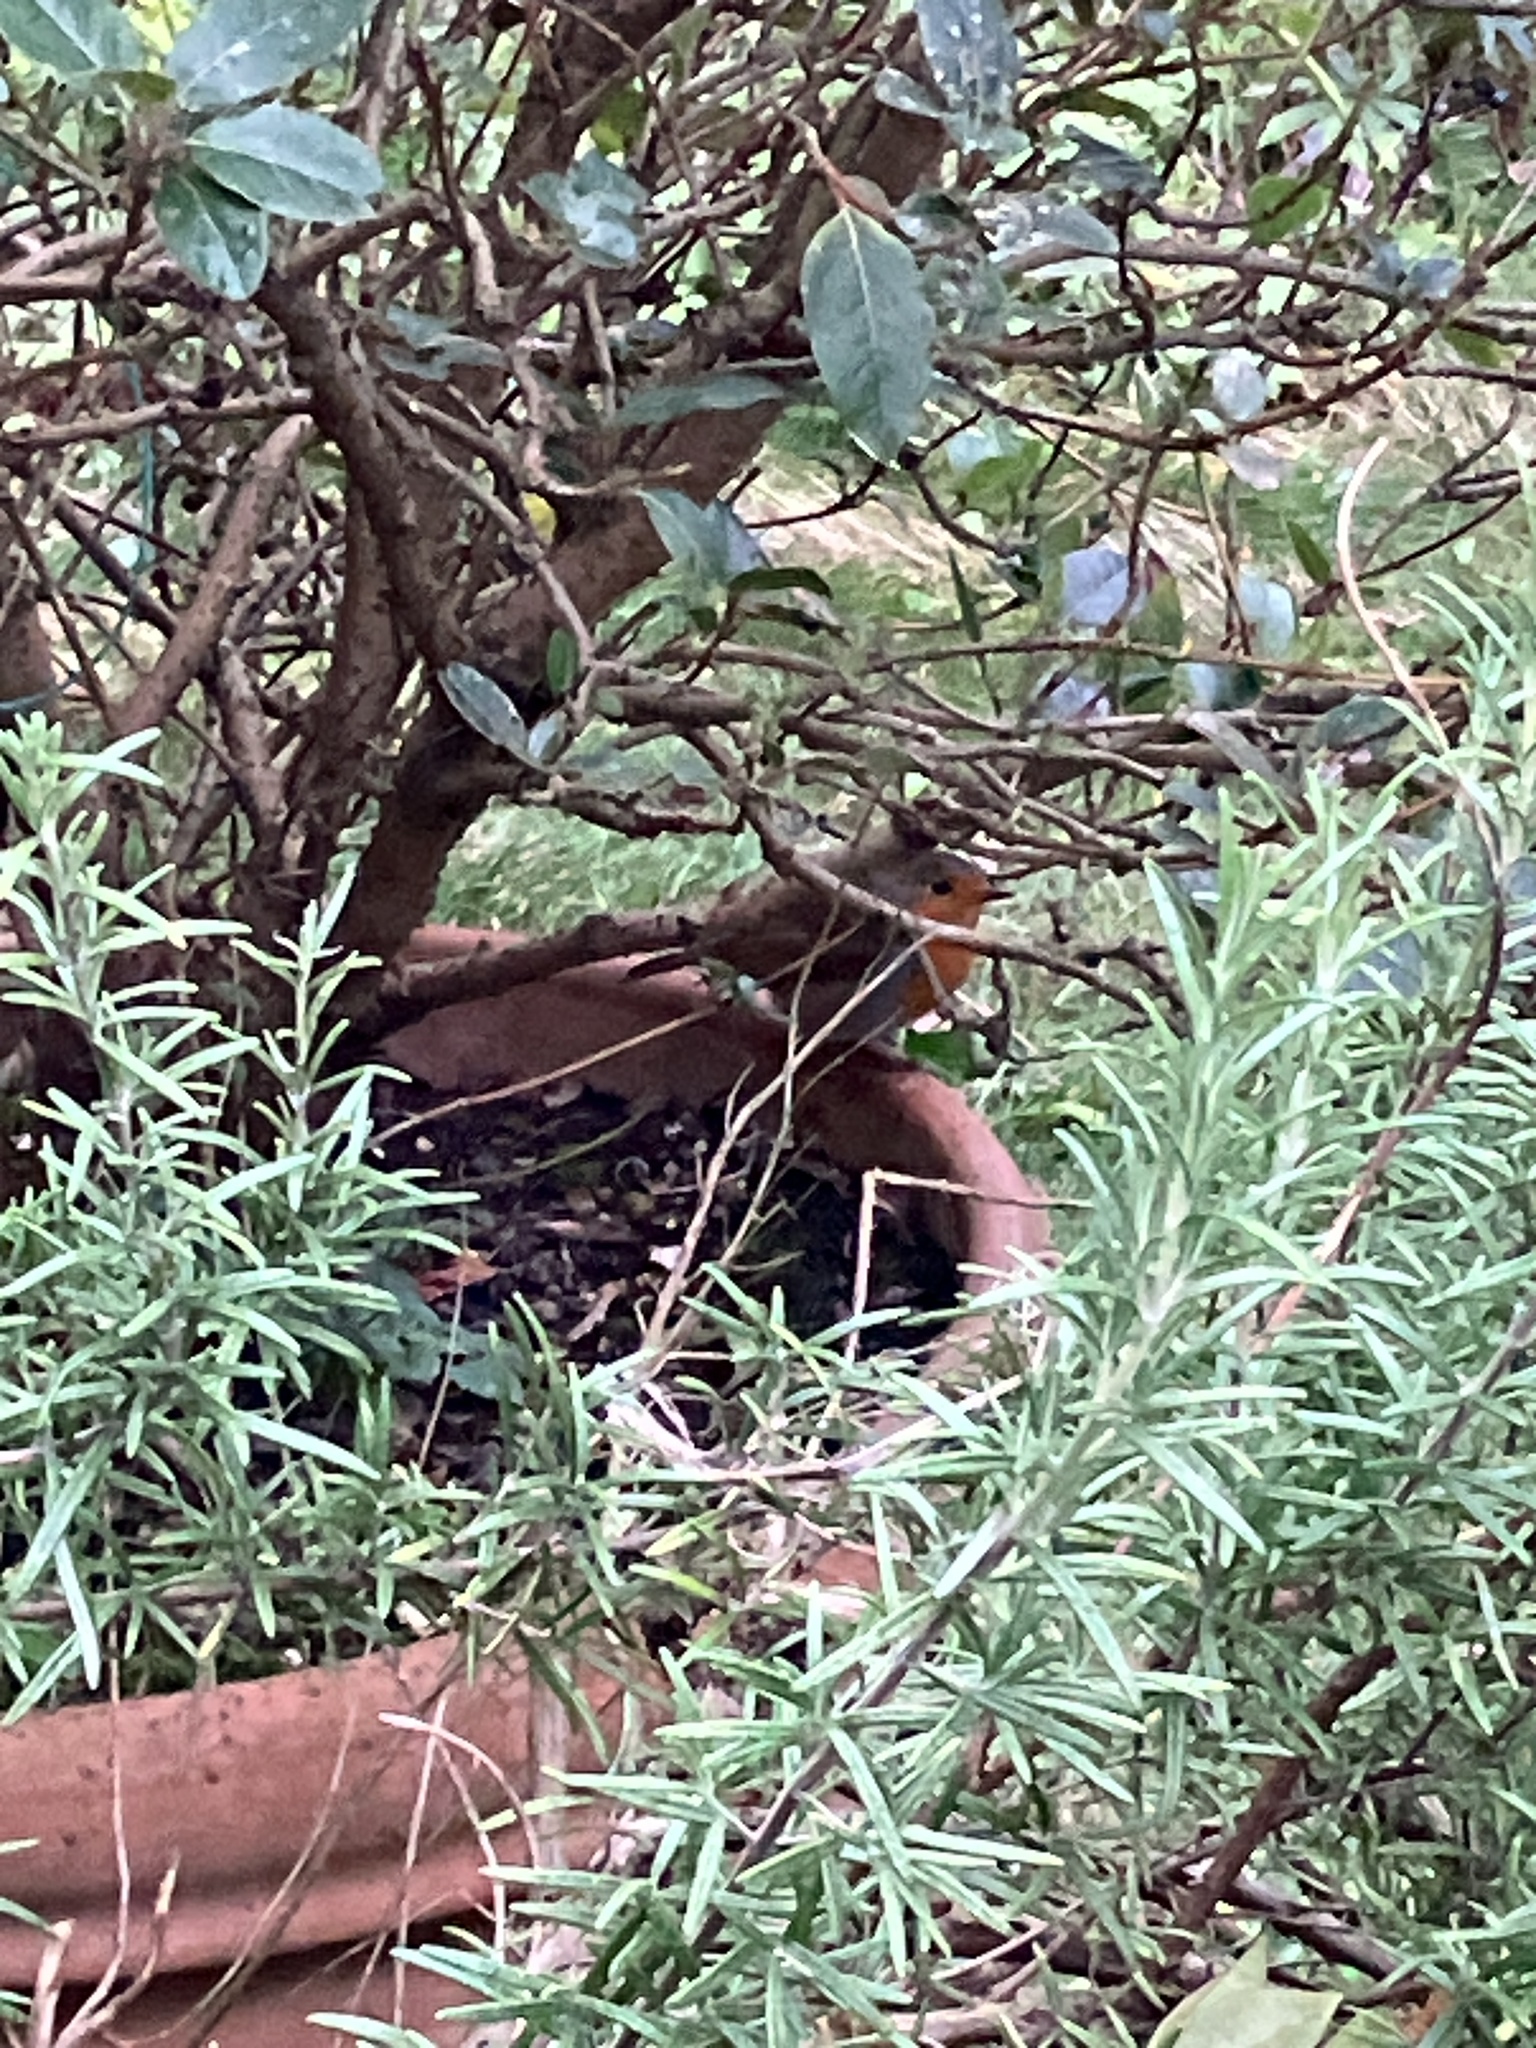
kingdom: Animalia
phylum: Chordata
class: Aves
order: Passeriformes
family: Muscicapidae
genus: Erithacus
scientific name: Erithacus rubecula
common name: European robin
